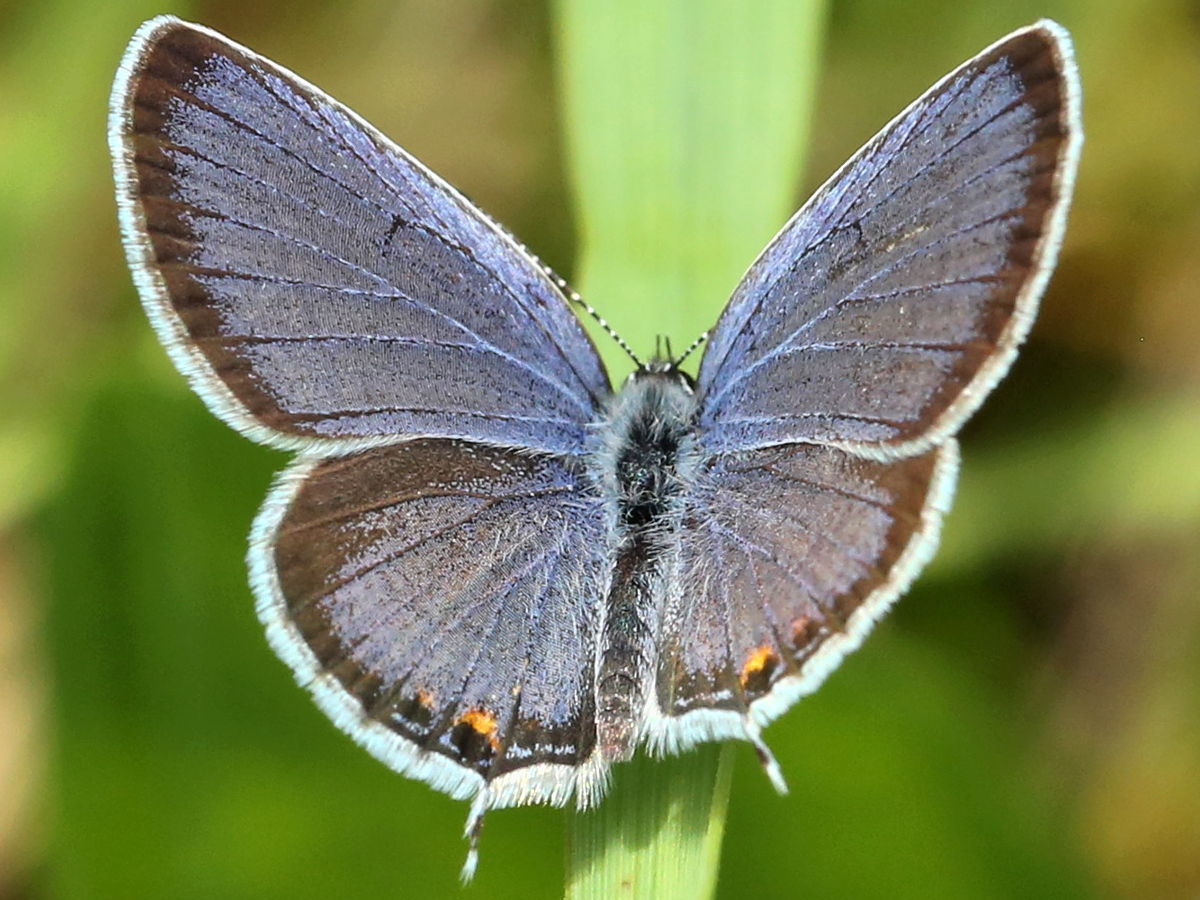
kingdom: Animalia
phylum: Arthropoda
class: Insecta
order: Lepidoptera
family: Lycaenidae
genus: Elkalyce
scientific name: Elkalyce comyntas
